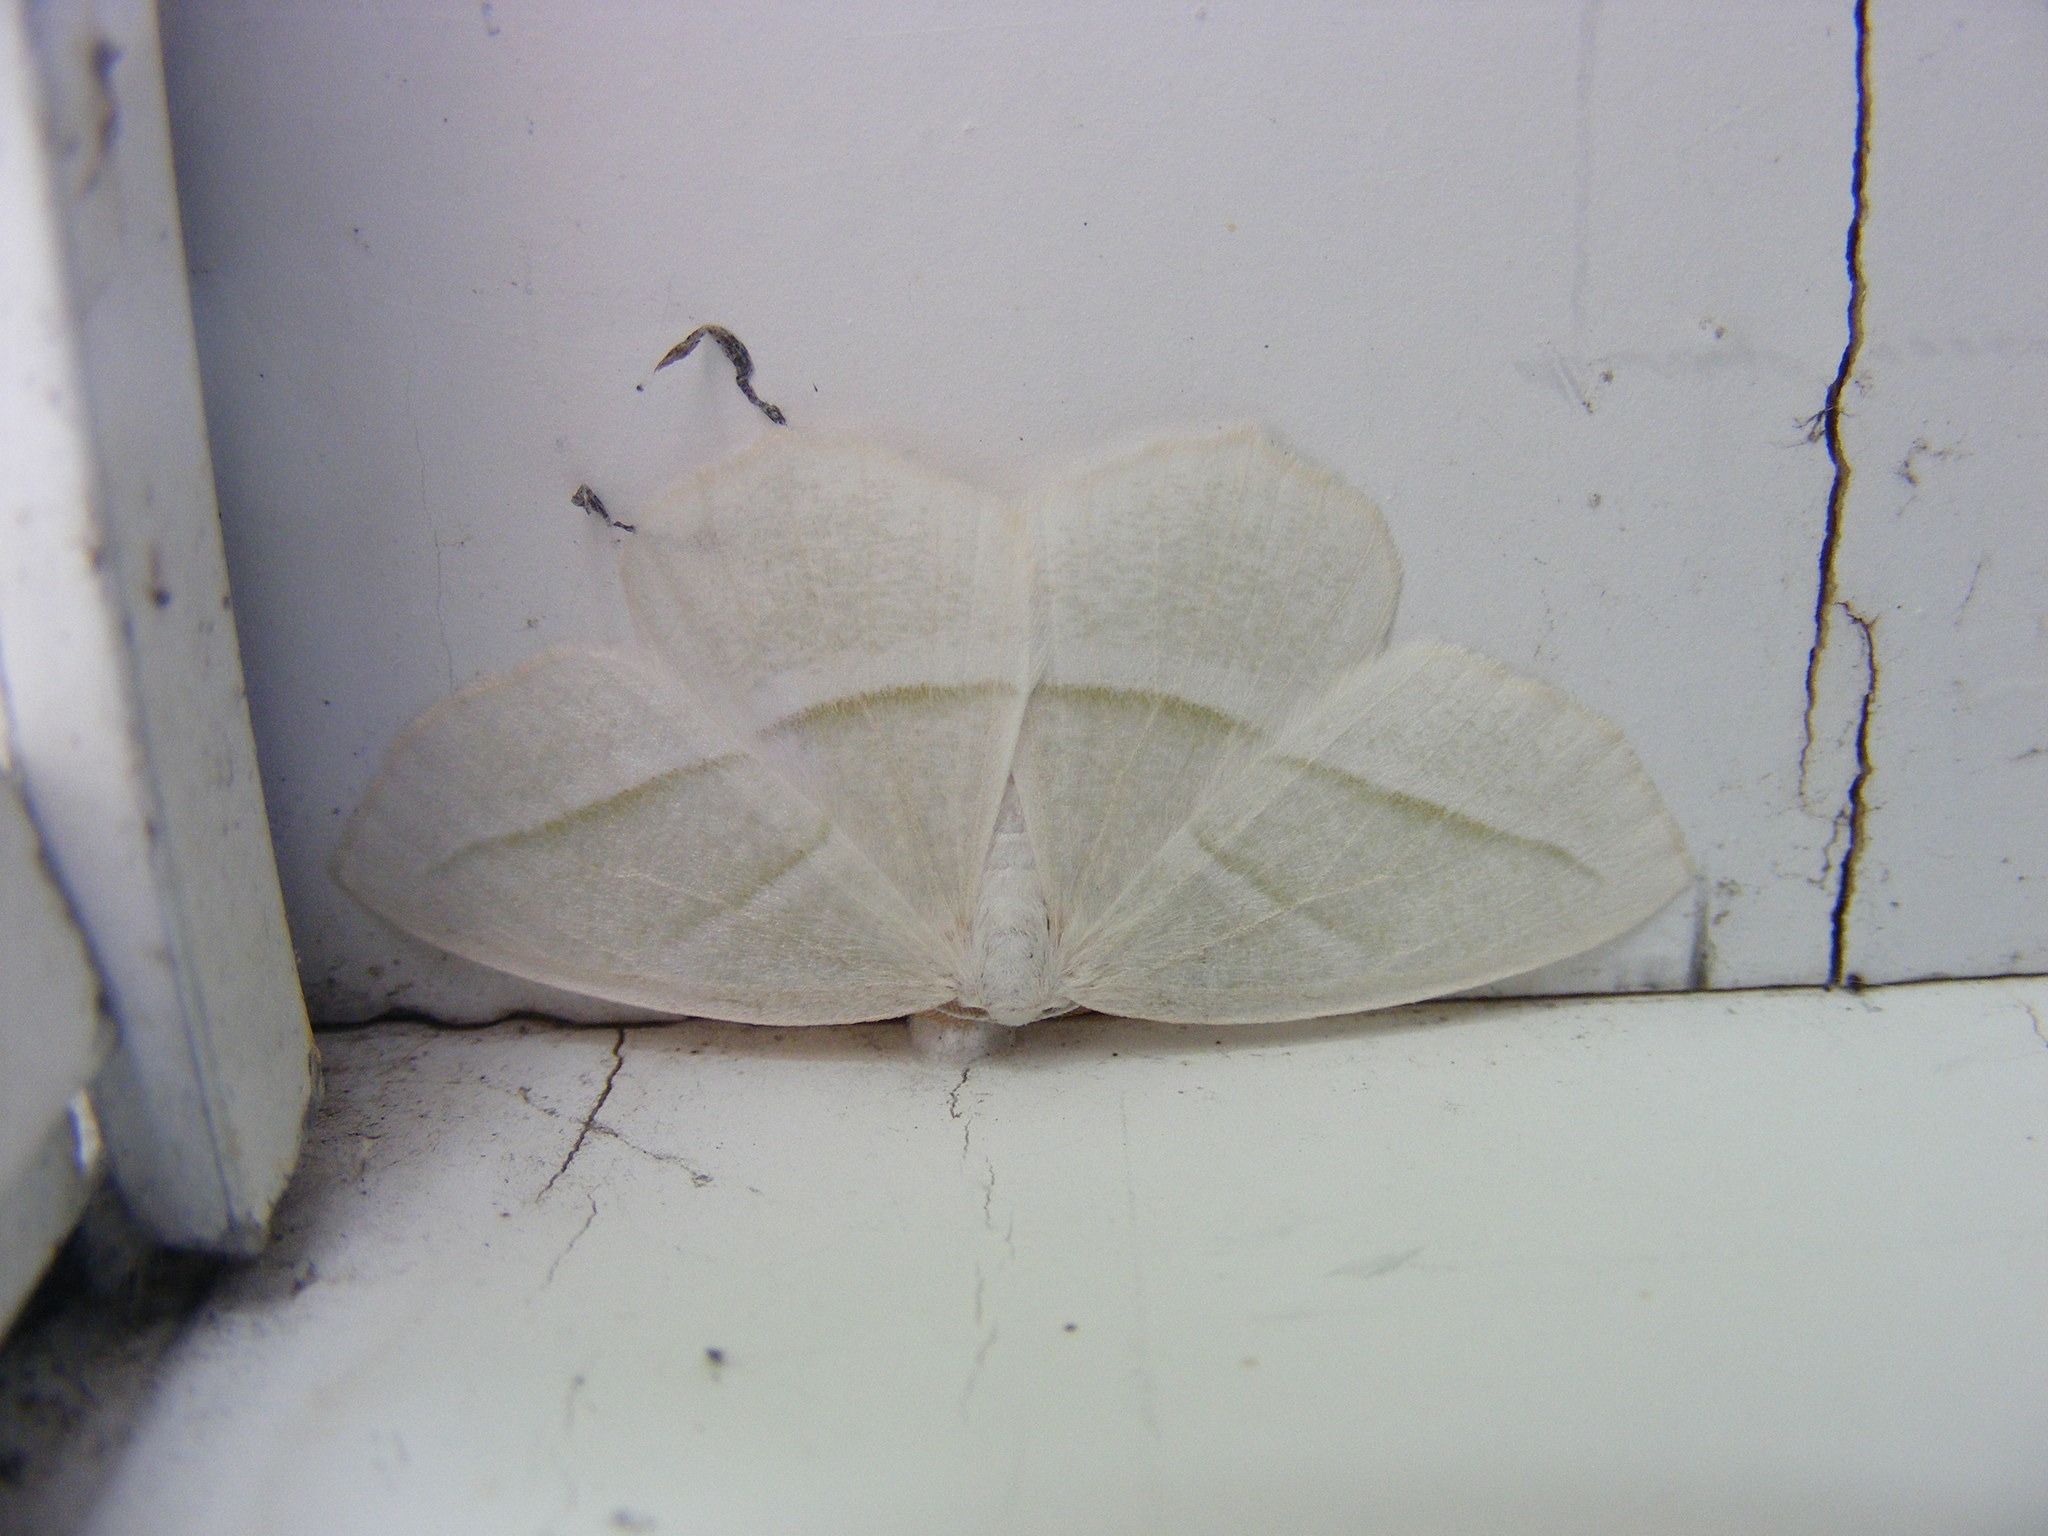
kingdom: Animalia
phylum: Arthropoda
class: Insecta
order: Lepidoptera
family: Geometridae
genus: Campaea
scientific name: Campaea perlata
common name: Fringed looper
